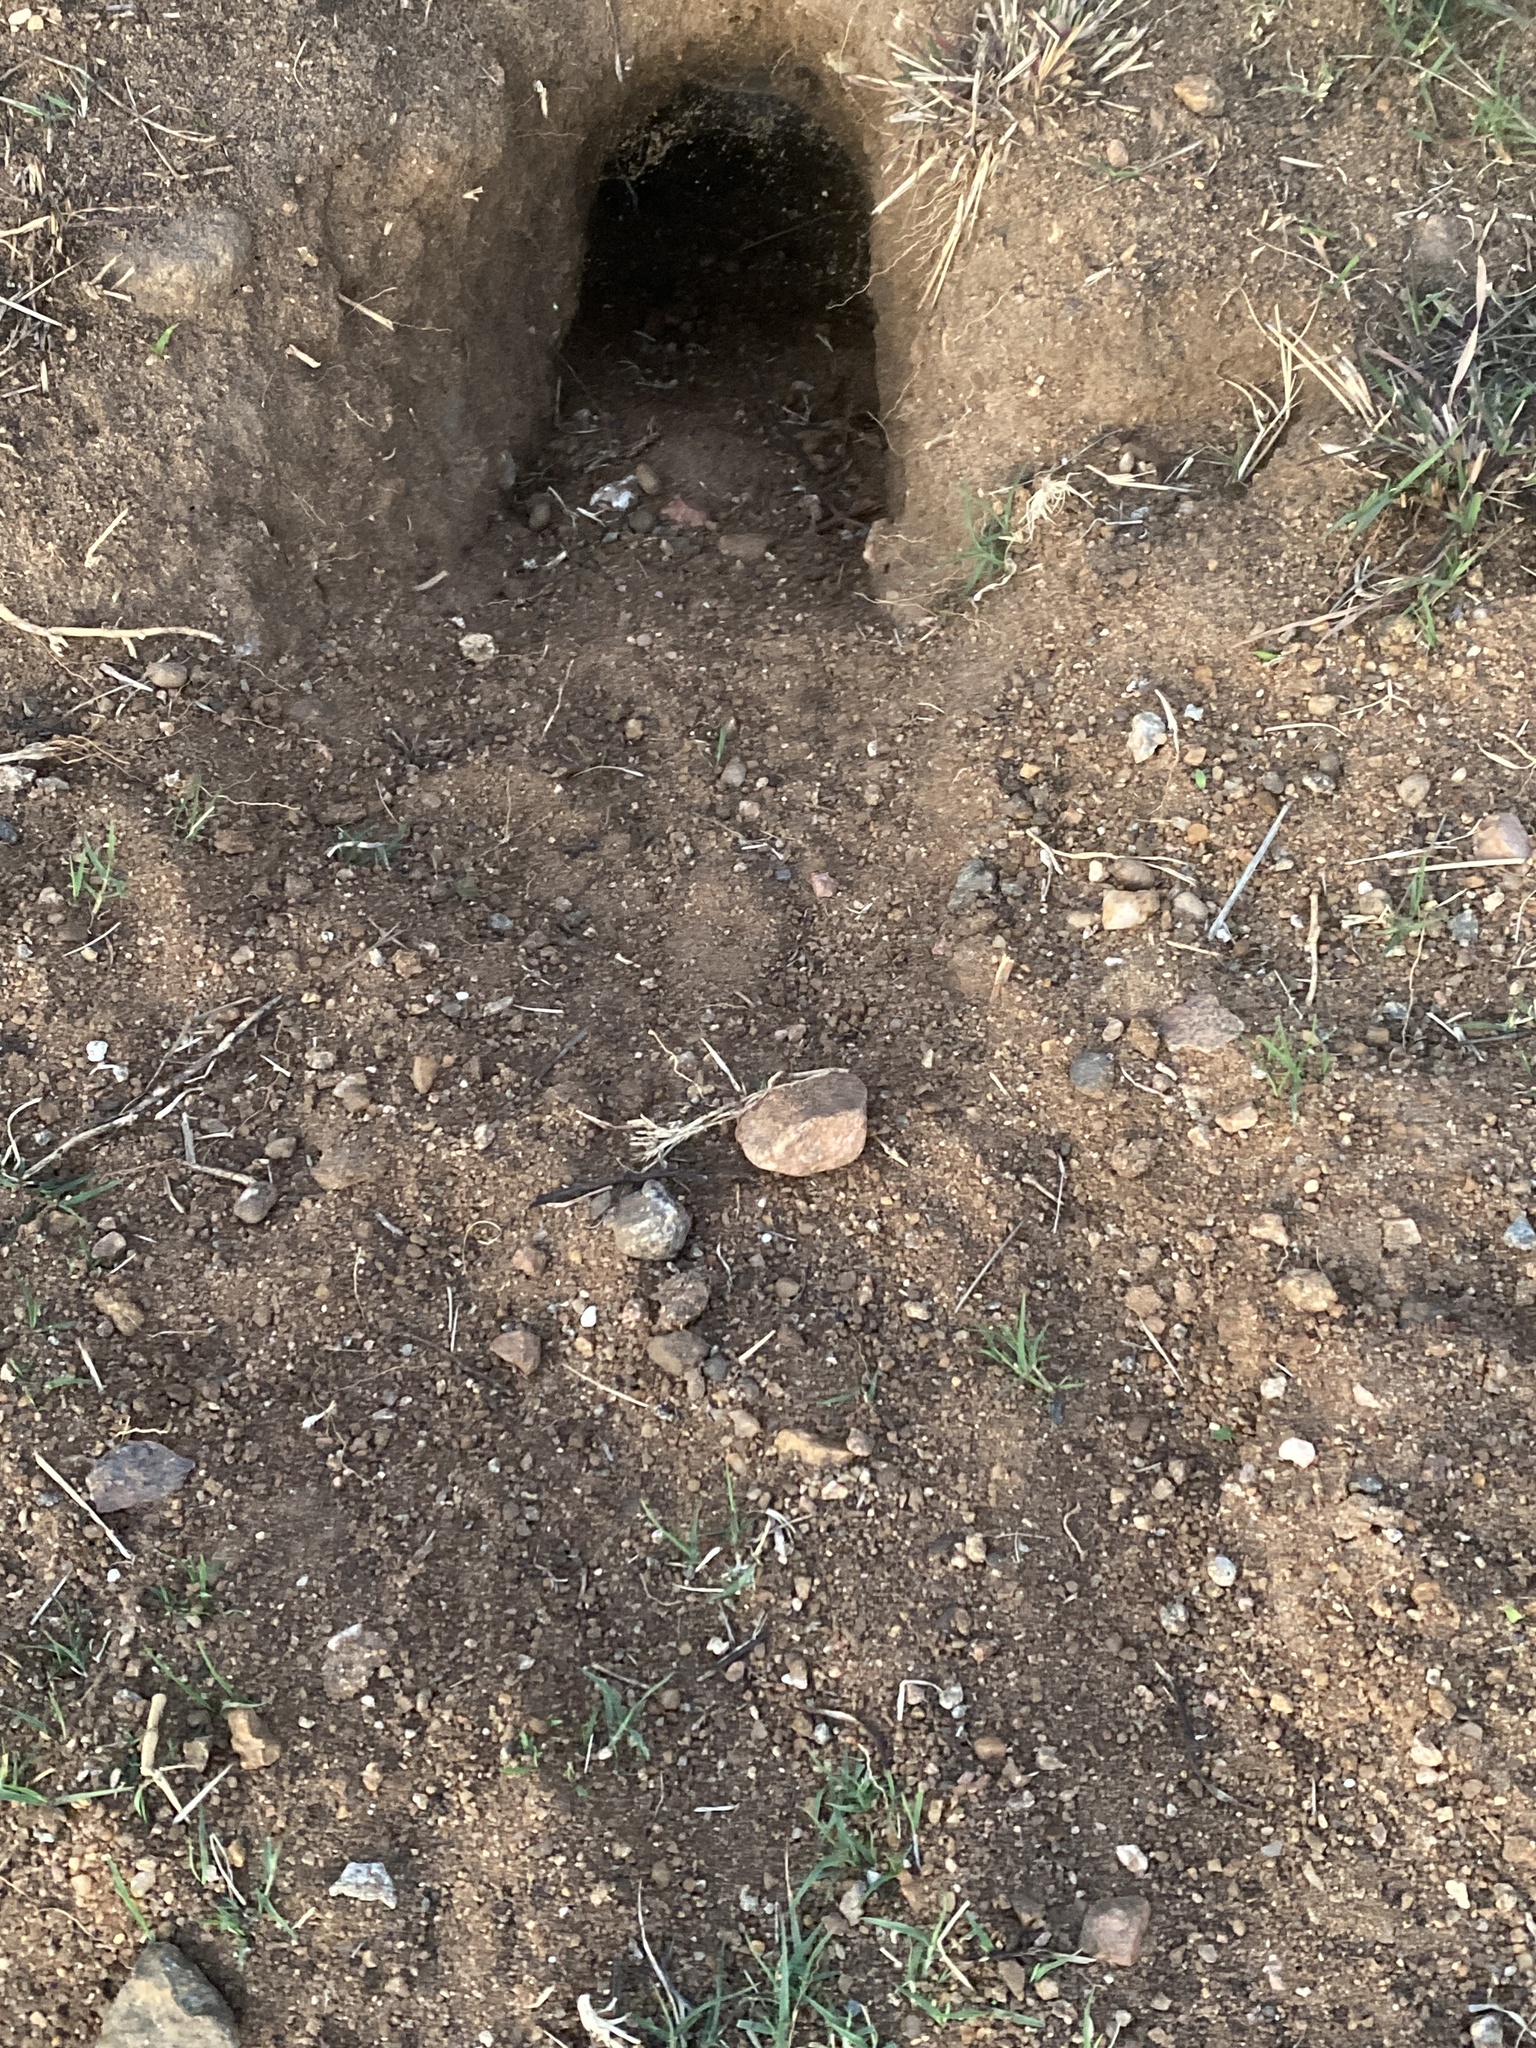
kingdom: Animalia
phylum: Chordata
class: Mammalia
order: Rodentia
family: Pedetidae
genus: Pedetes
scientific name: Pedetes capensis
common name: South african spring hare
